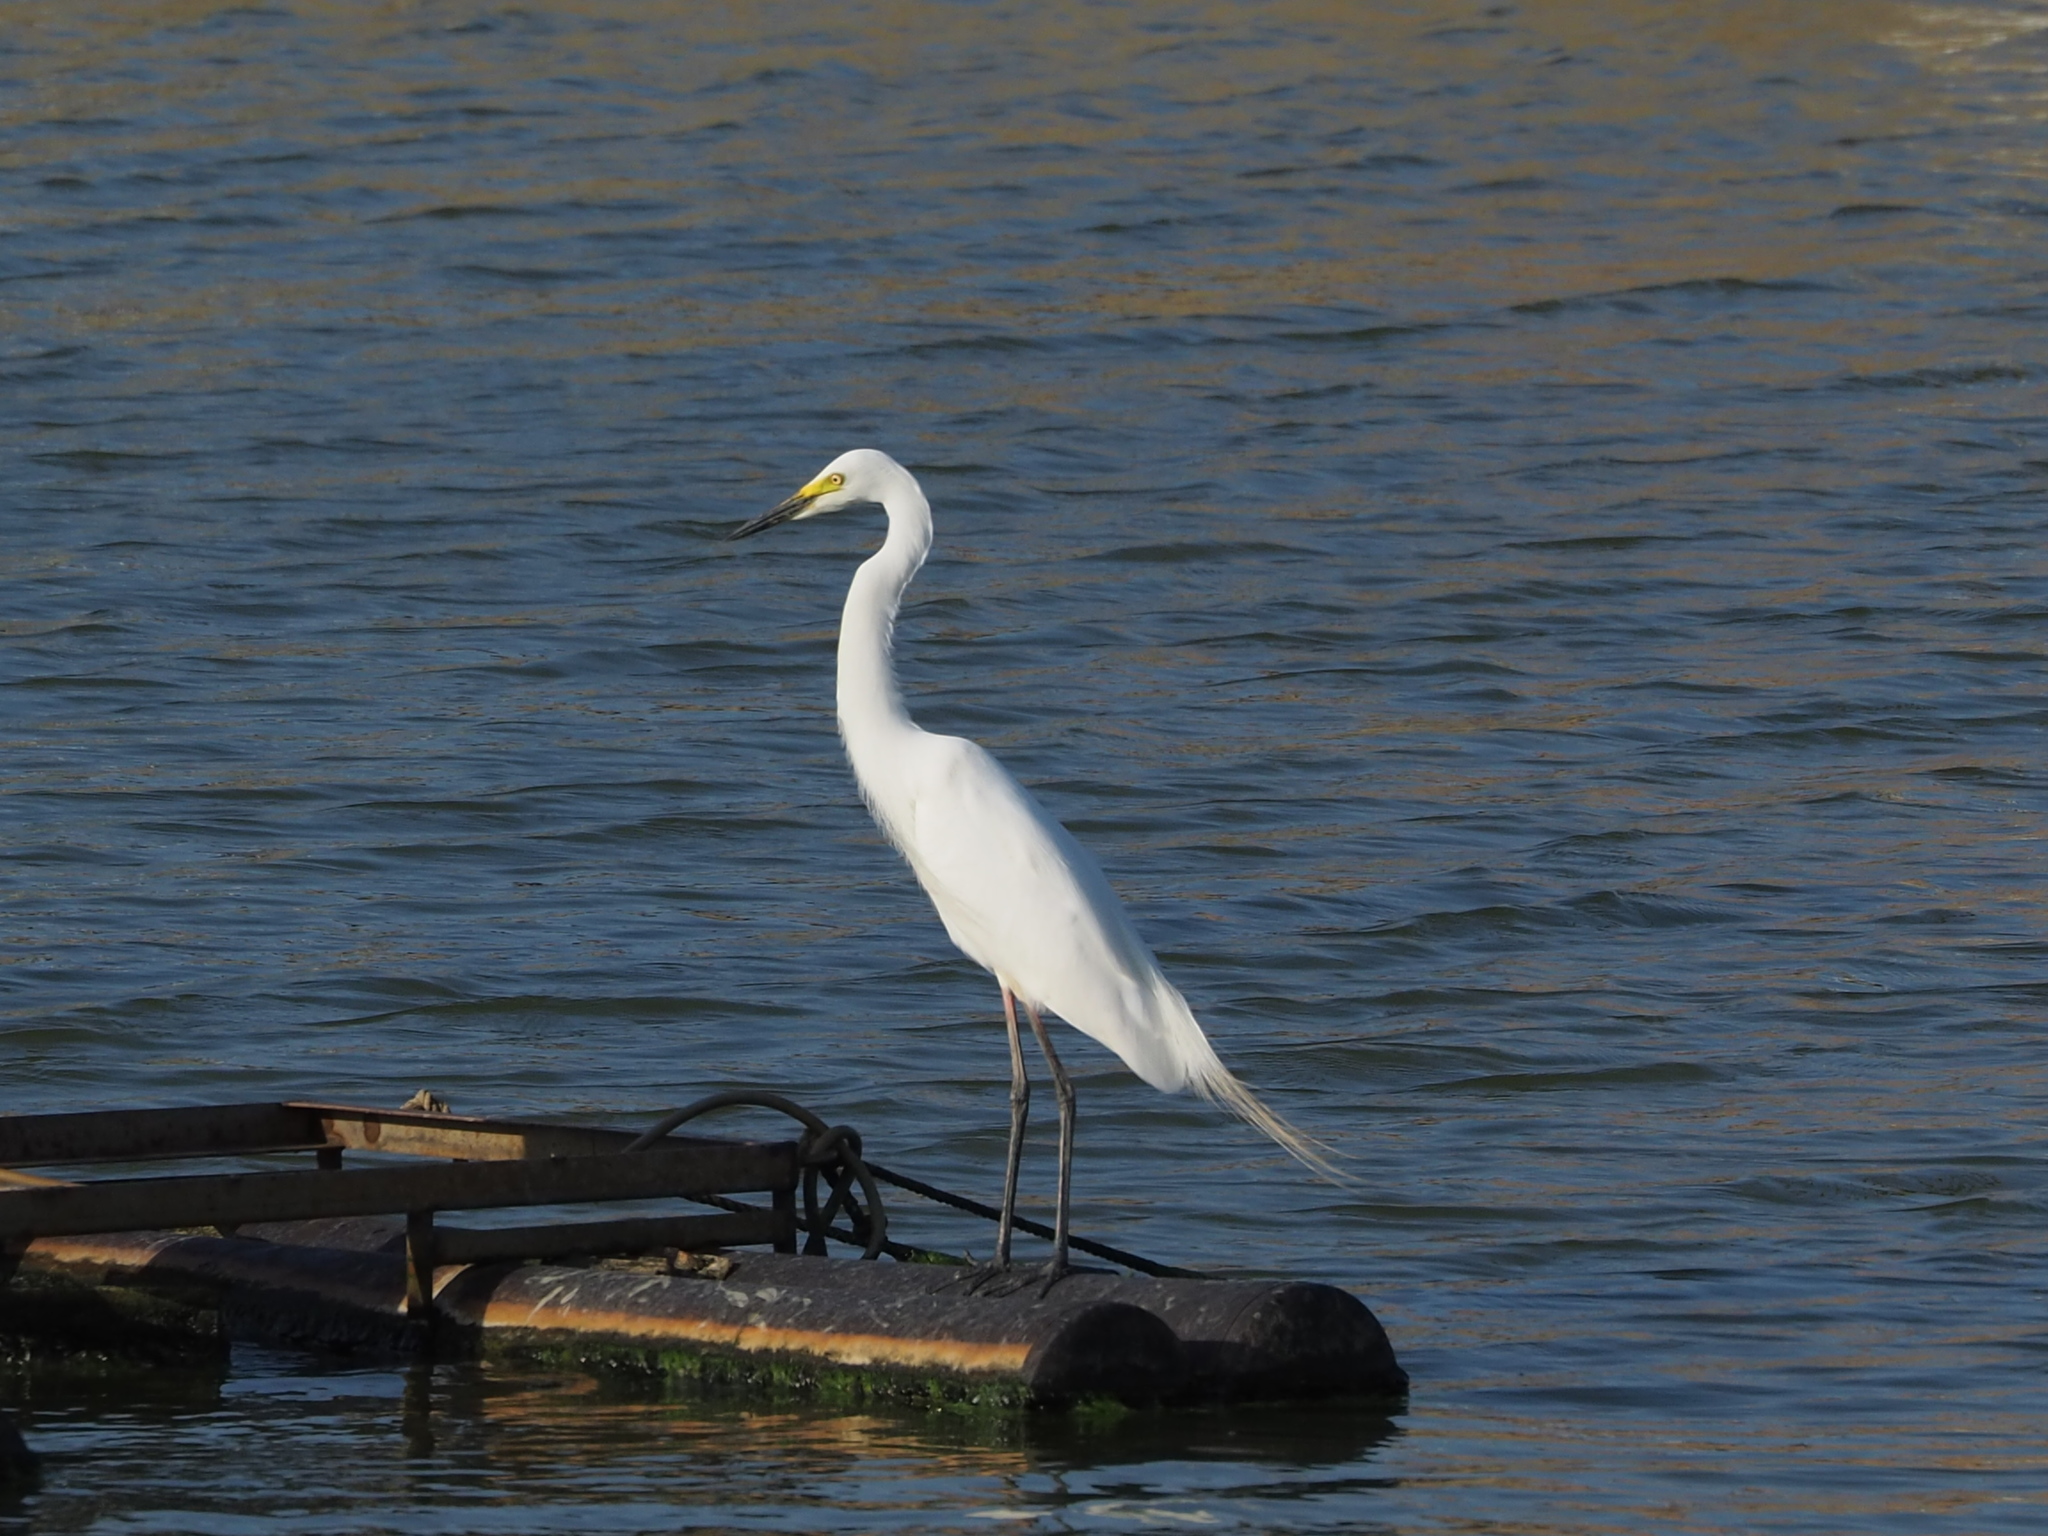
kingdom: Animalia
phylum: Chordata
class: Aves
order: Pelecaniformes
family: Ardeidae
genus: Egretta
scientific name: Egretta intermedia
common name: Intermediate egret
